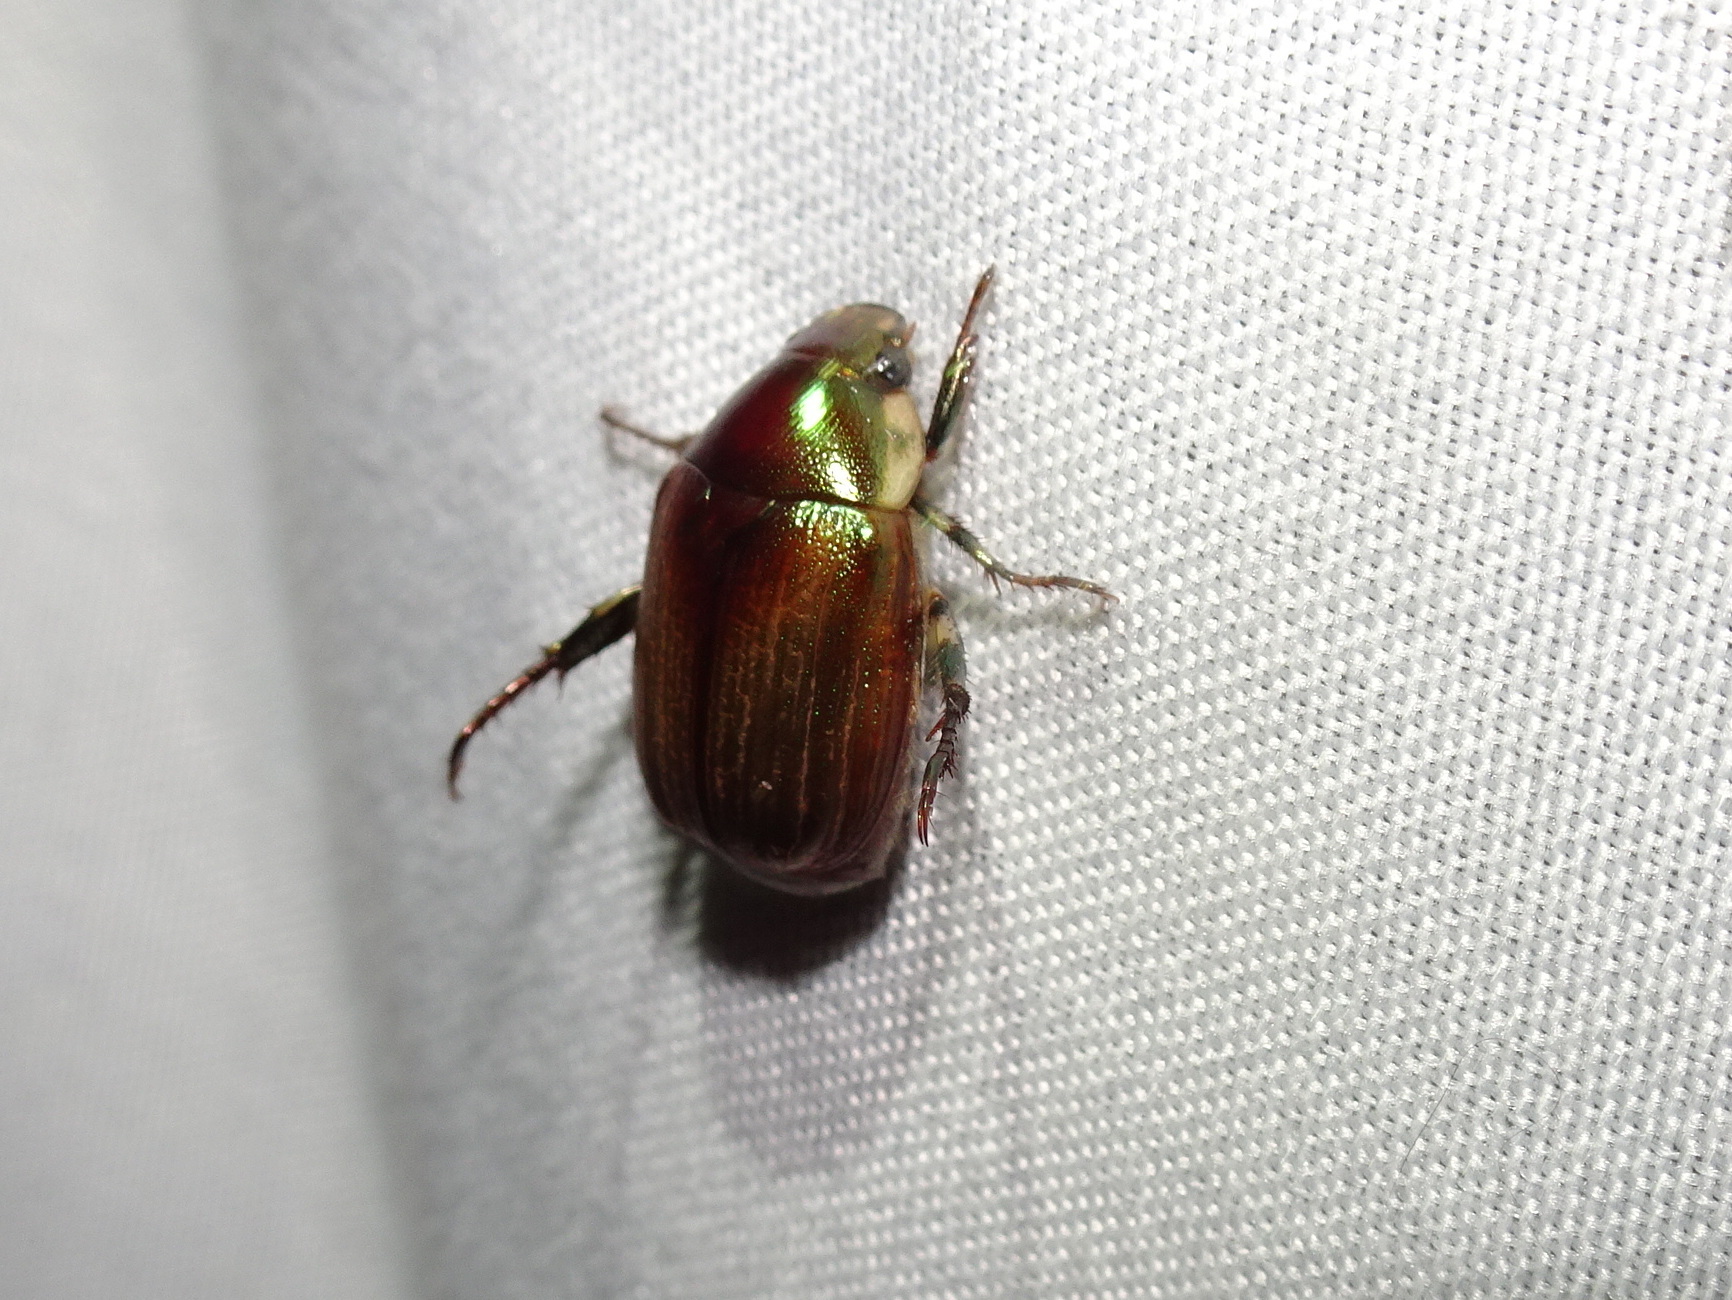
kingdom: Animalia
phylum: Arthropoda
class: Insecta
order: Coleoptera
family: Scarabaeidae
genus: Callistethus
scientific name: Callistethus marginatus
